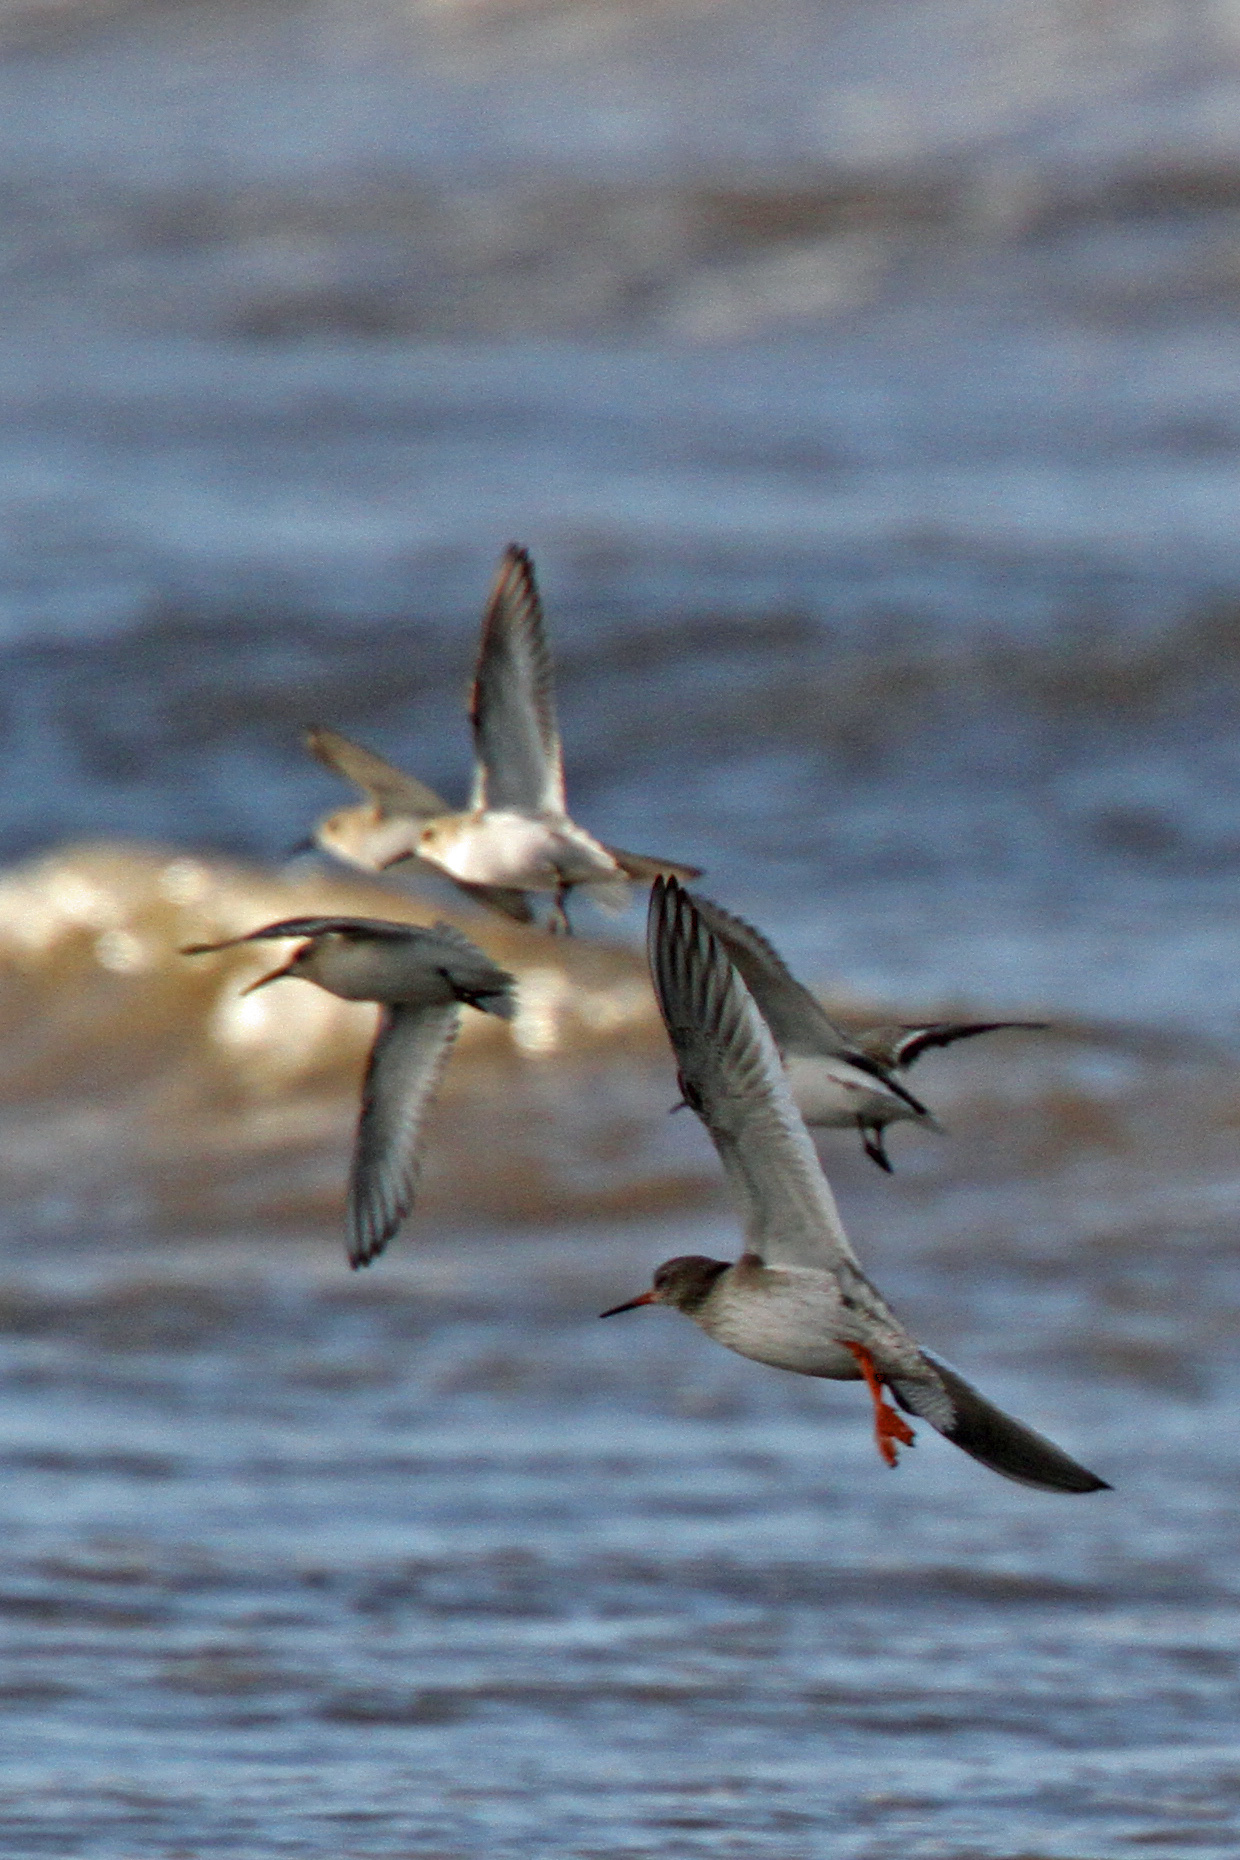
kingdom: Animalia
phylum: Chordata
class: Aves
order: Charadriiformes
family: Scolopacidae
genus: Tringa
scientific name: Tringa totanus
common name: Common redshank
